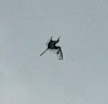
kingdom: Animalia
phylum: Chordata
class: Aves
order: Pelecaniformes
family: Ardeidae
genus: Egretta
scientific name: Egretta caerulea
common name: Little blue heron
